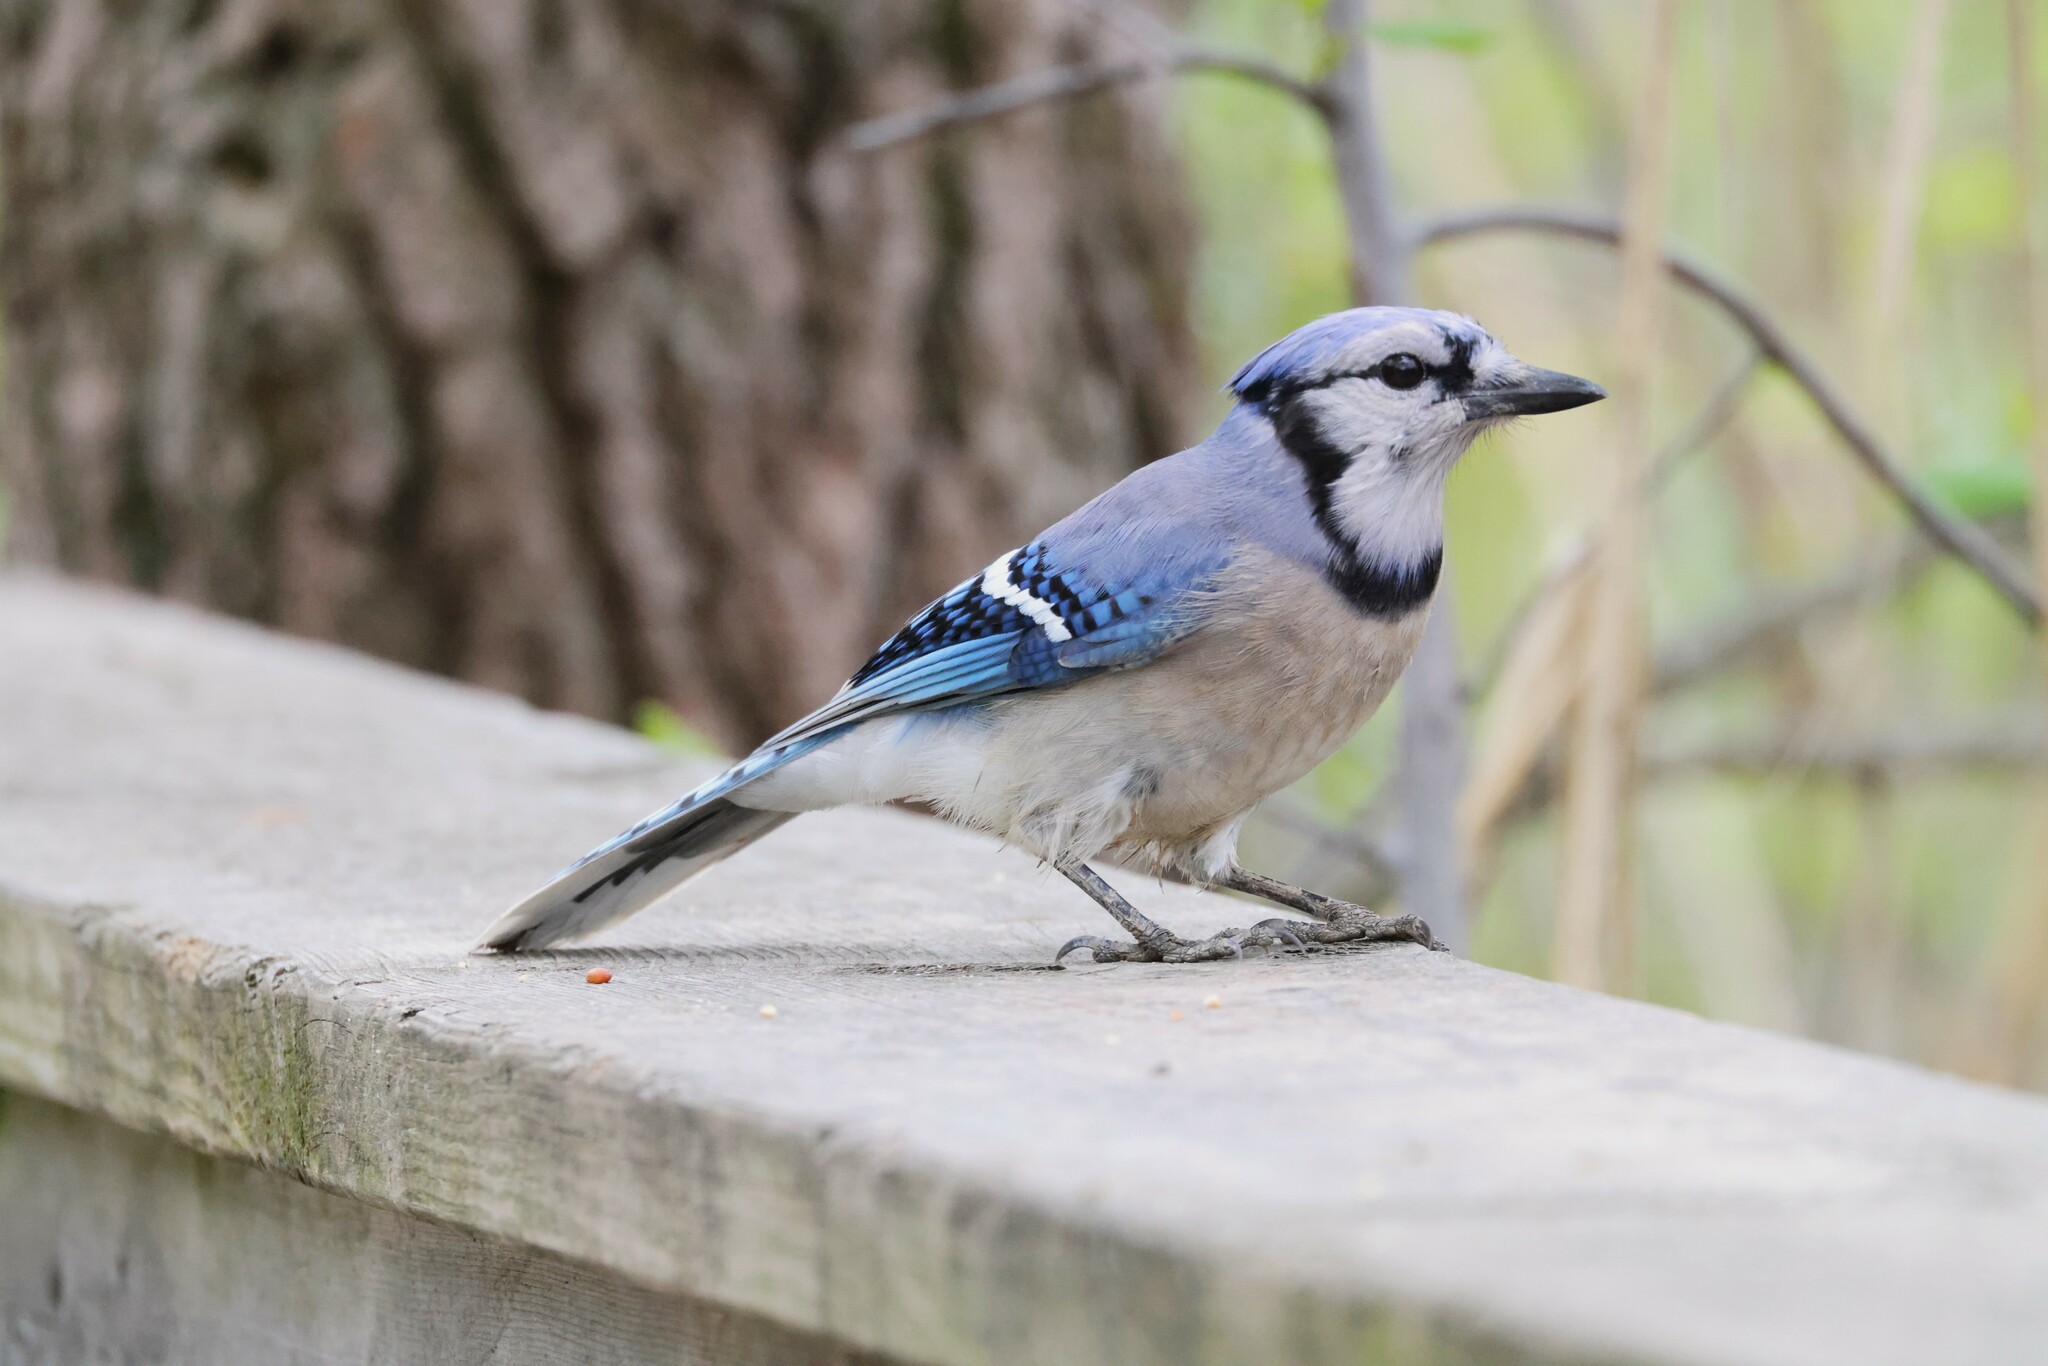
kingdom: Animalia
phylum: Chordata
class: Aves
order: Passeriformes
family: Corvidae
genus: Cyanocitta
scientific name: Cyanocitta cristata
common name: Blue jay
